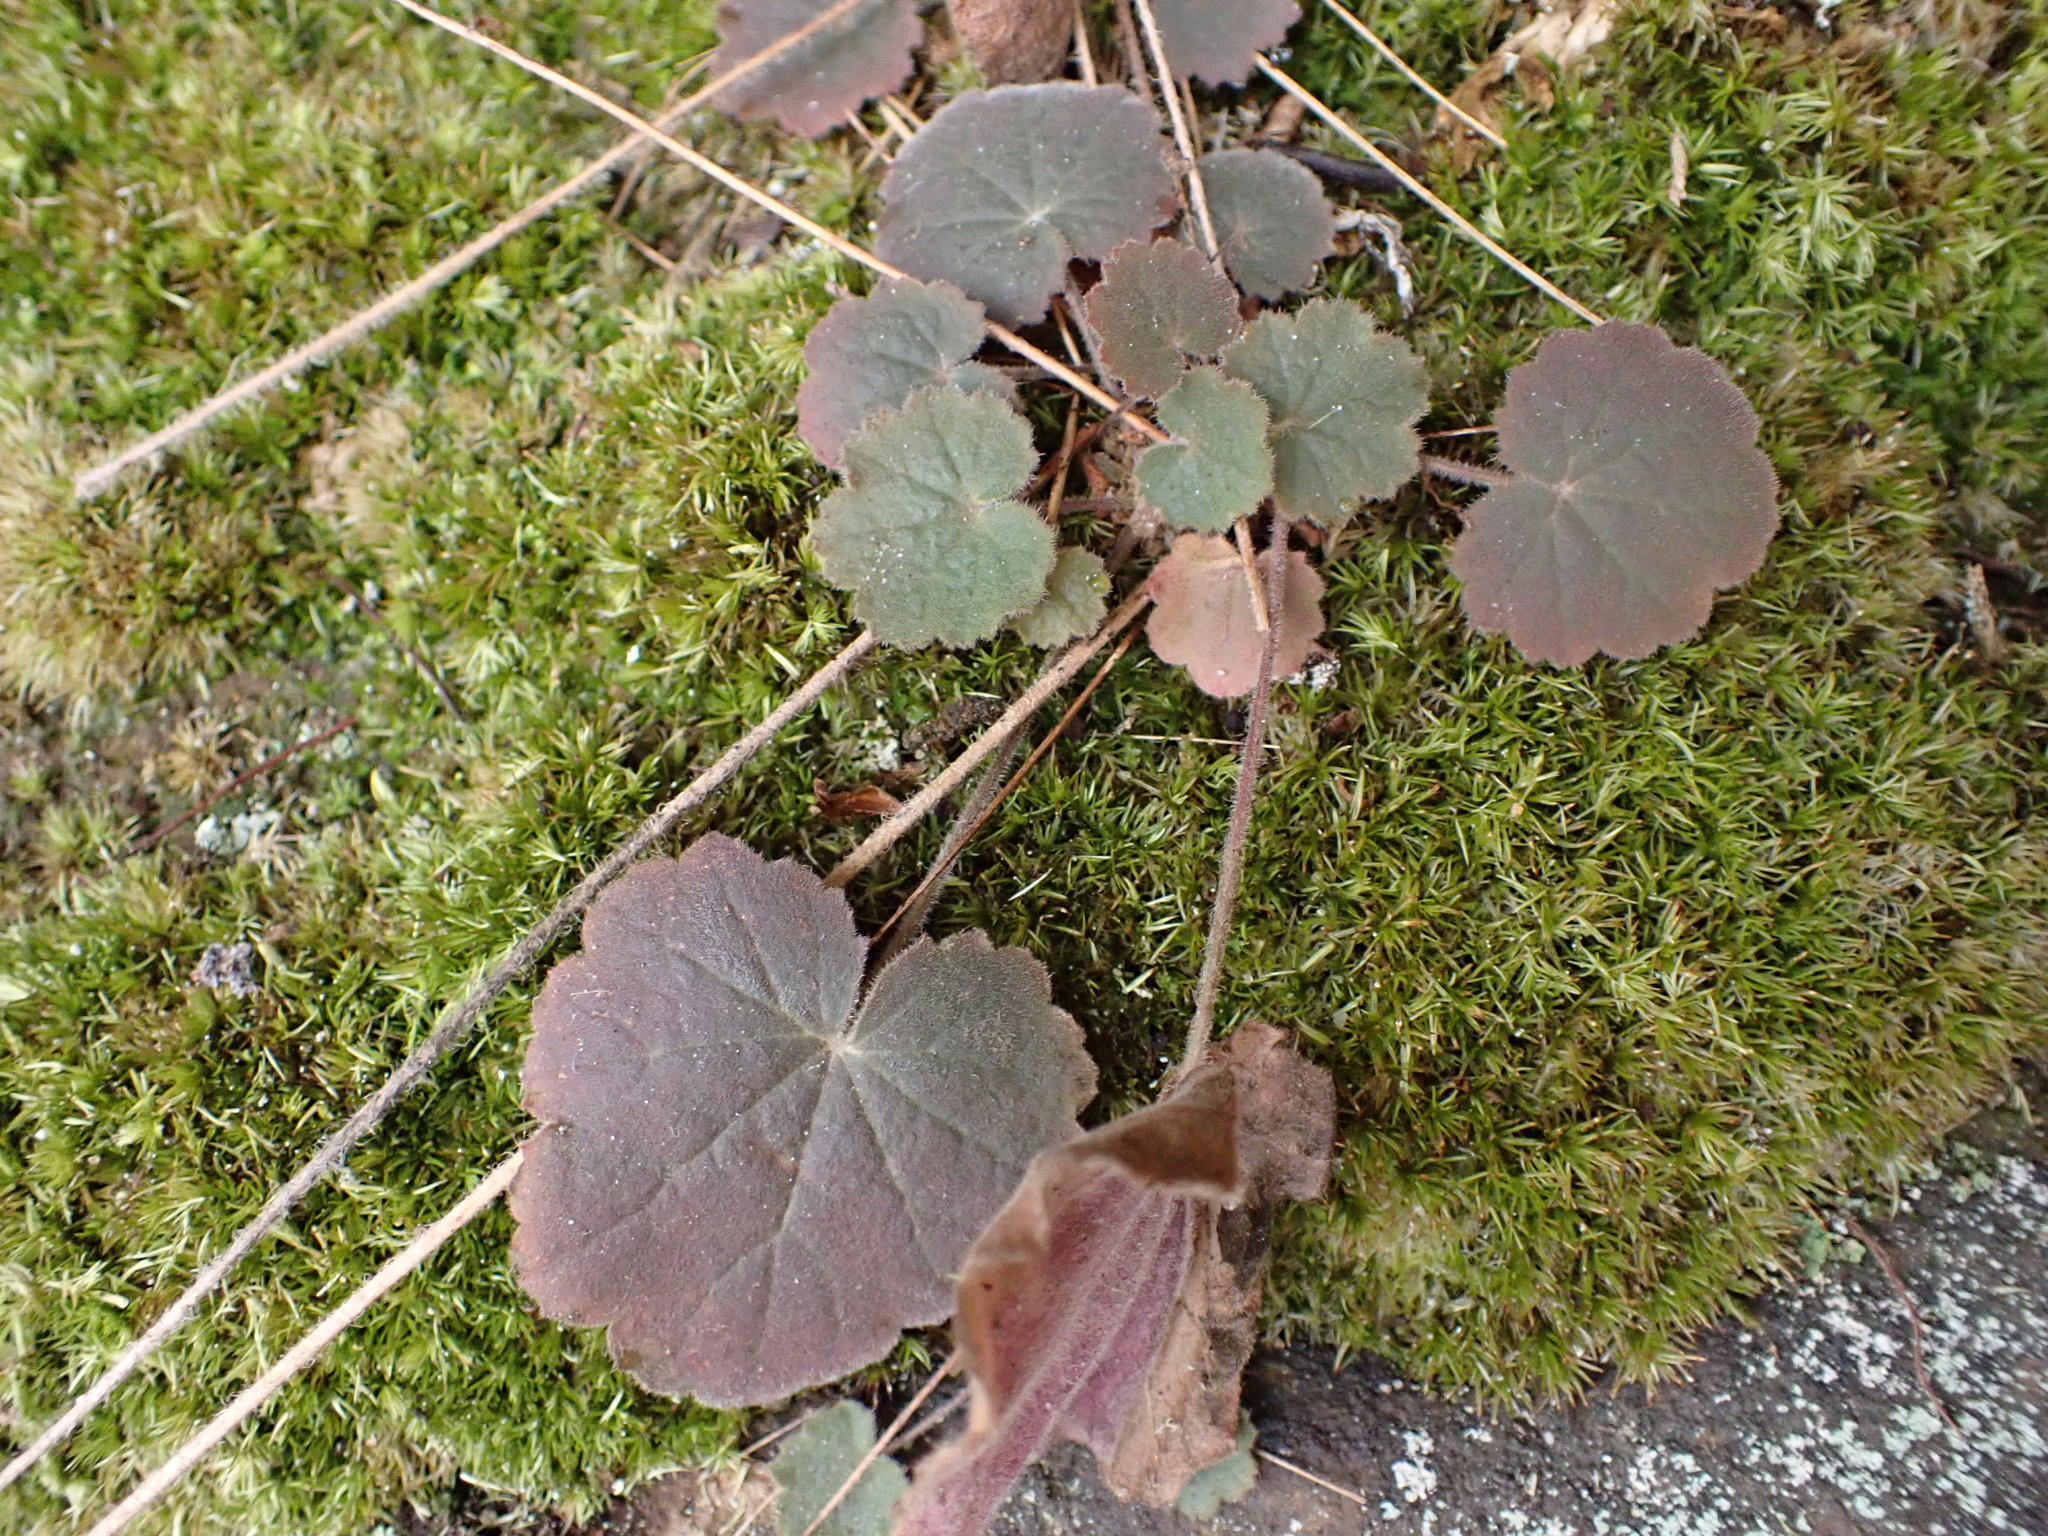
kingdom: Plantae
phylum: Tracheophyta
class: Magnoliopsida
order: Saxifragales
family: Saxifragaceae
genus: Heuchera
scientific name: Heuchera parviflora
